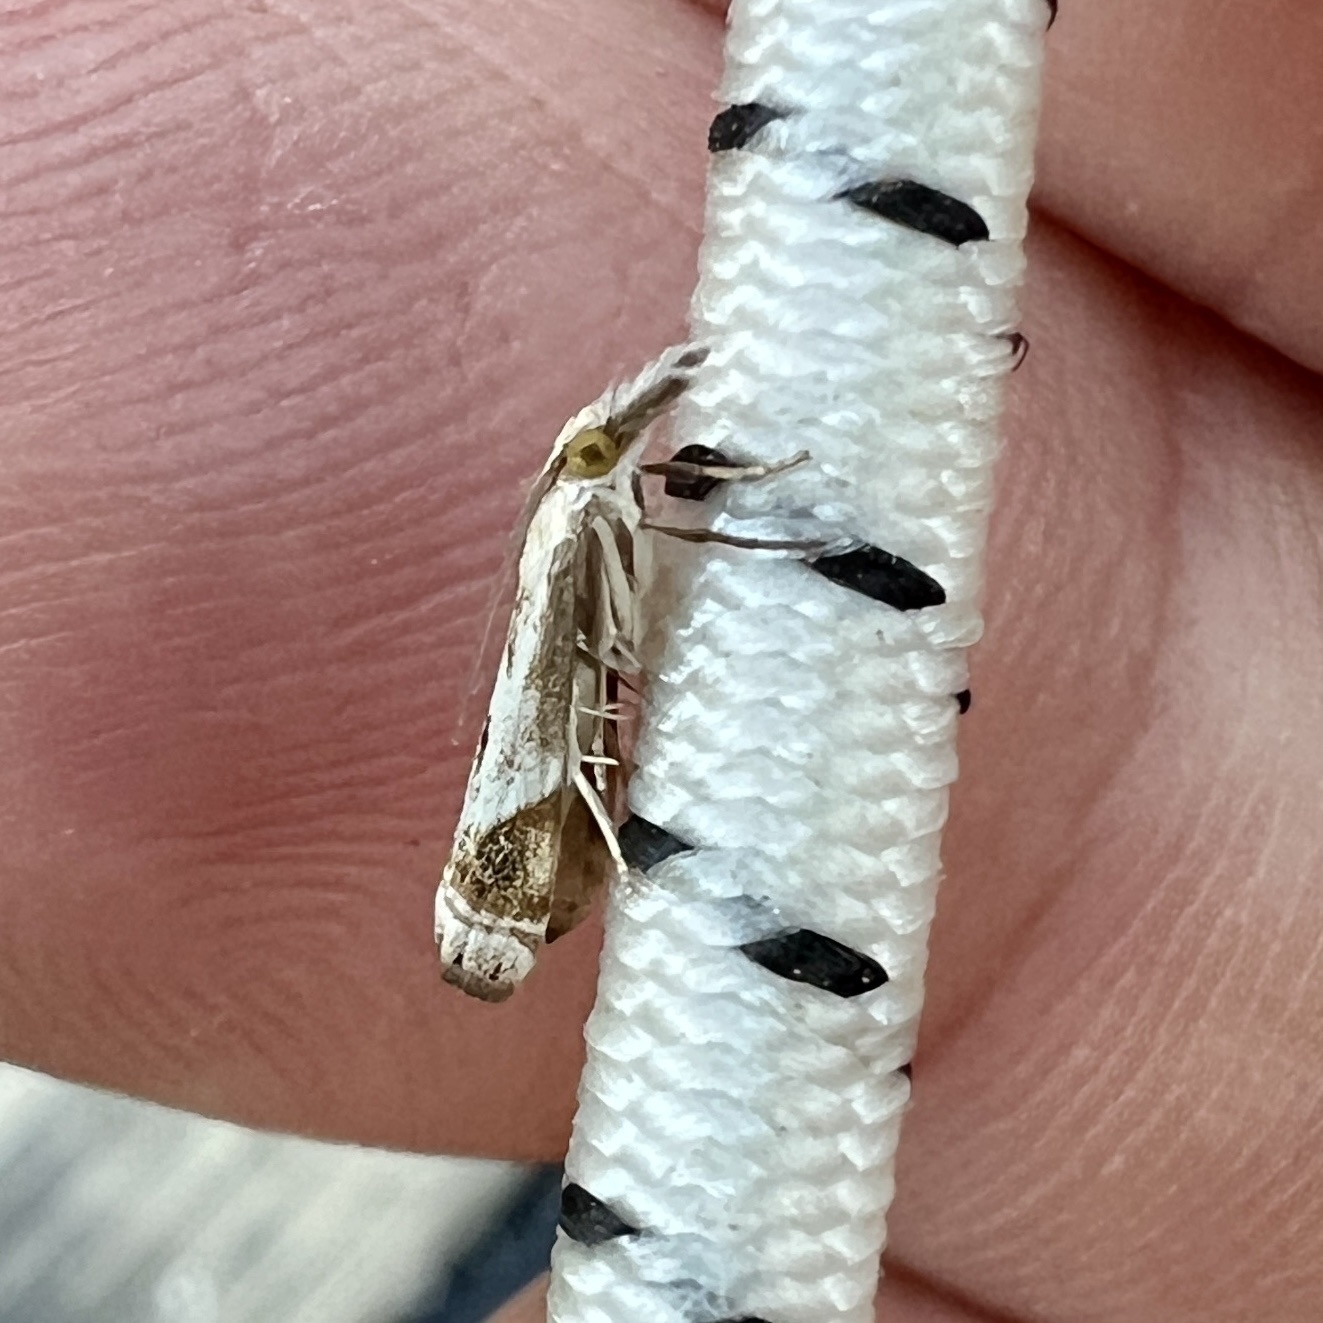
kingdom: Animalia
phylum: Arthropoda
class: Insecta
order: Lepidoptera
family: Crambidae
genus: Microcrambus
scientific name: Microcrambus elegans
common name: Elegant grass-veneer
